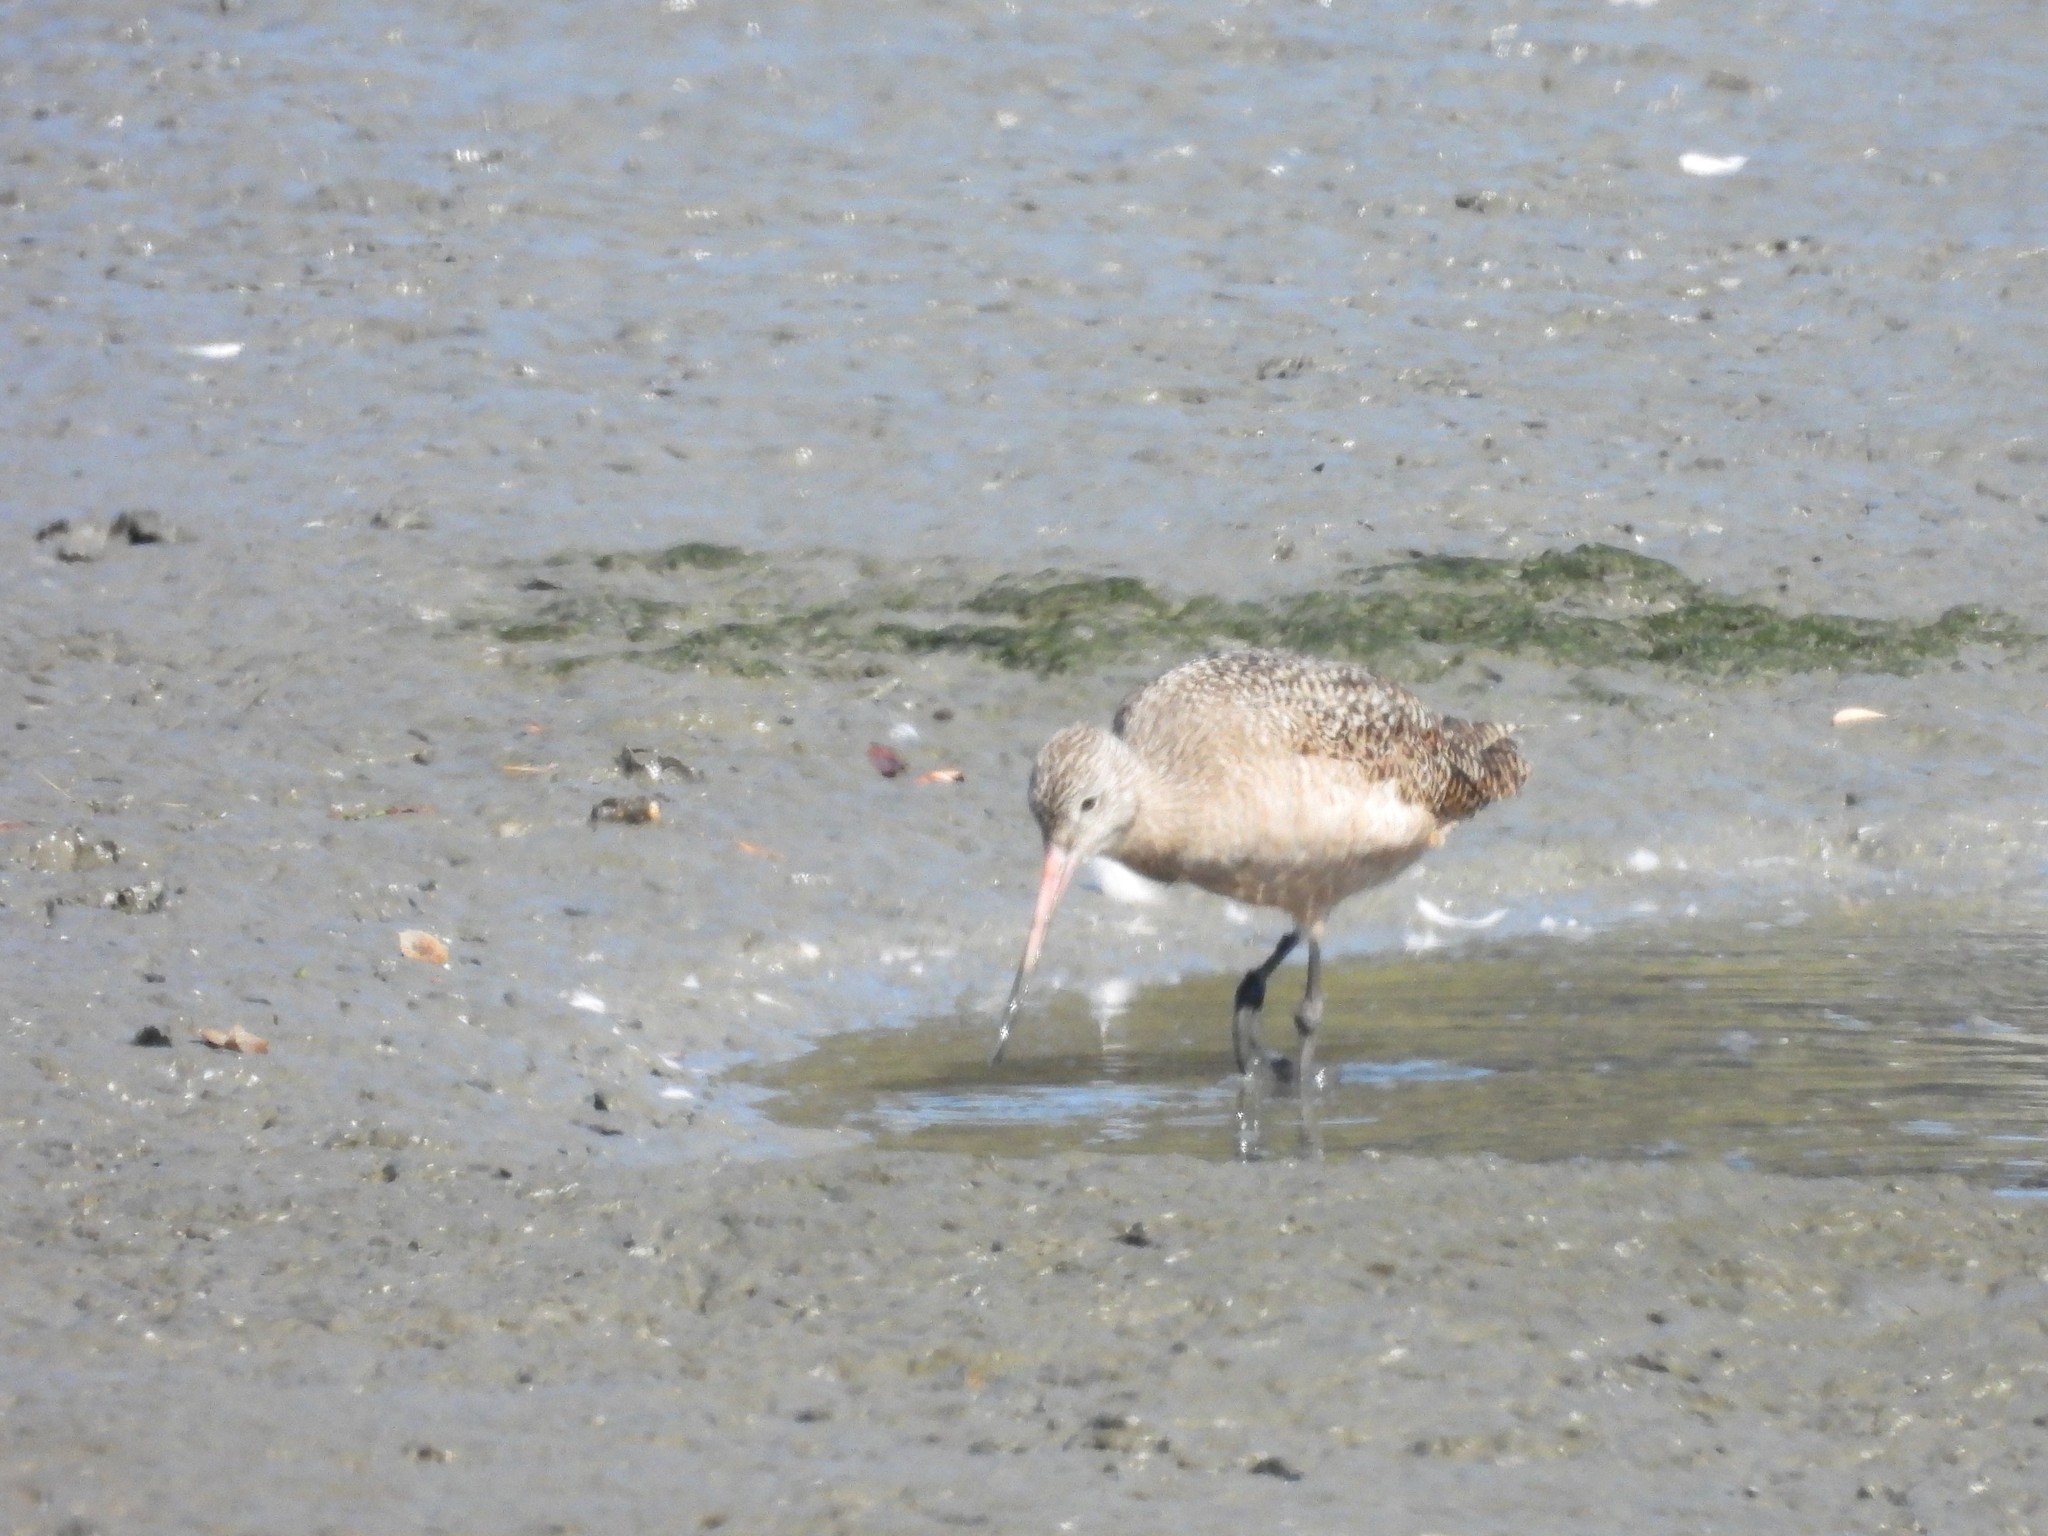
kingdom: Animalia
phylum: Chordata
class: Aves
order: Charadriiformes
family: Scolopacidae
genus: Limosa
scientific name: Limosa fedoa
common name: Marbled godwit
